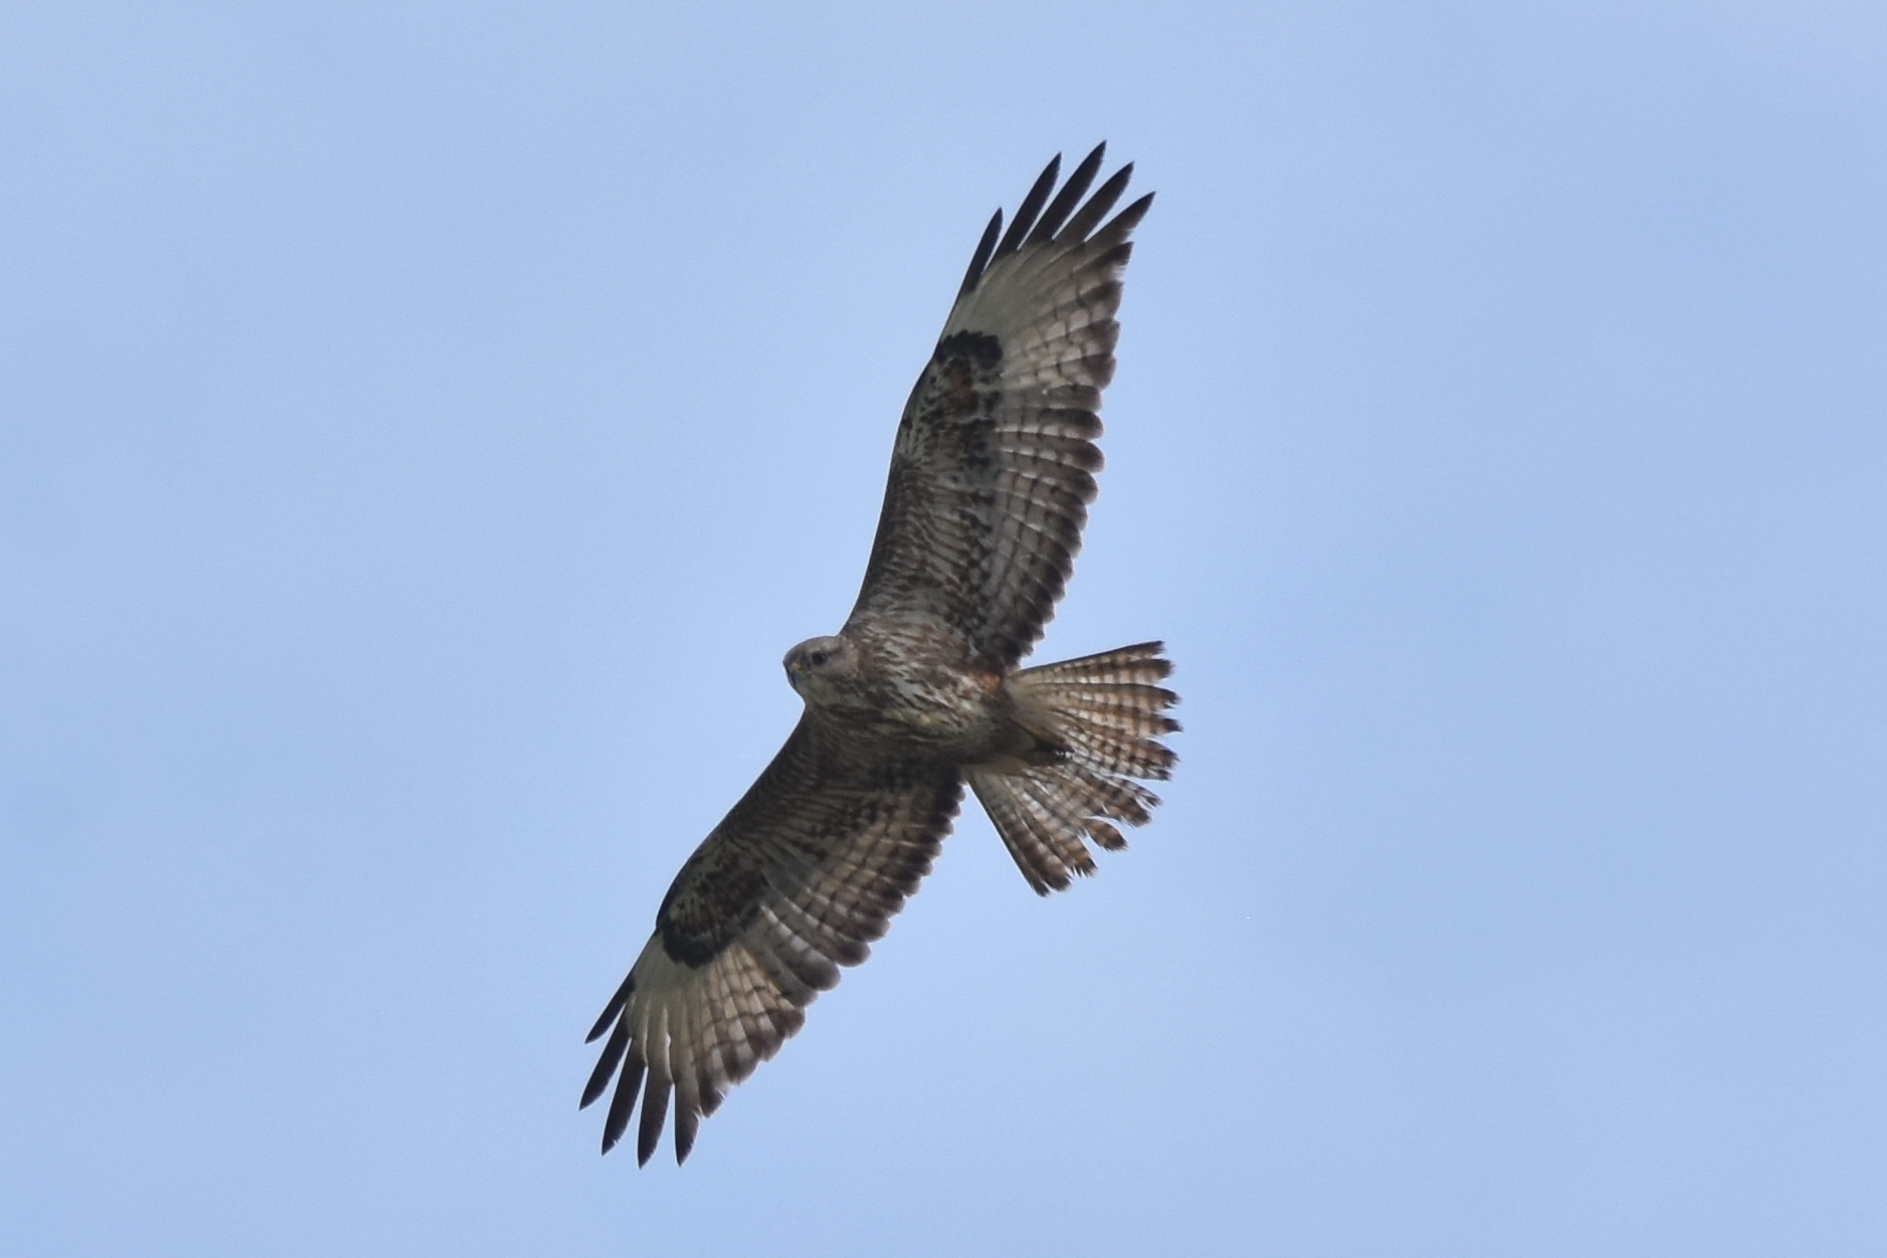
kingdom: Animalia
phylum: Chordata
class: Aves
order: Accipitriformes
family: Accipitridae
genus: Buteo
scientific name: Buteo buteo
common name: Common buzzard
